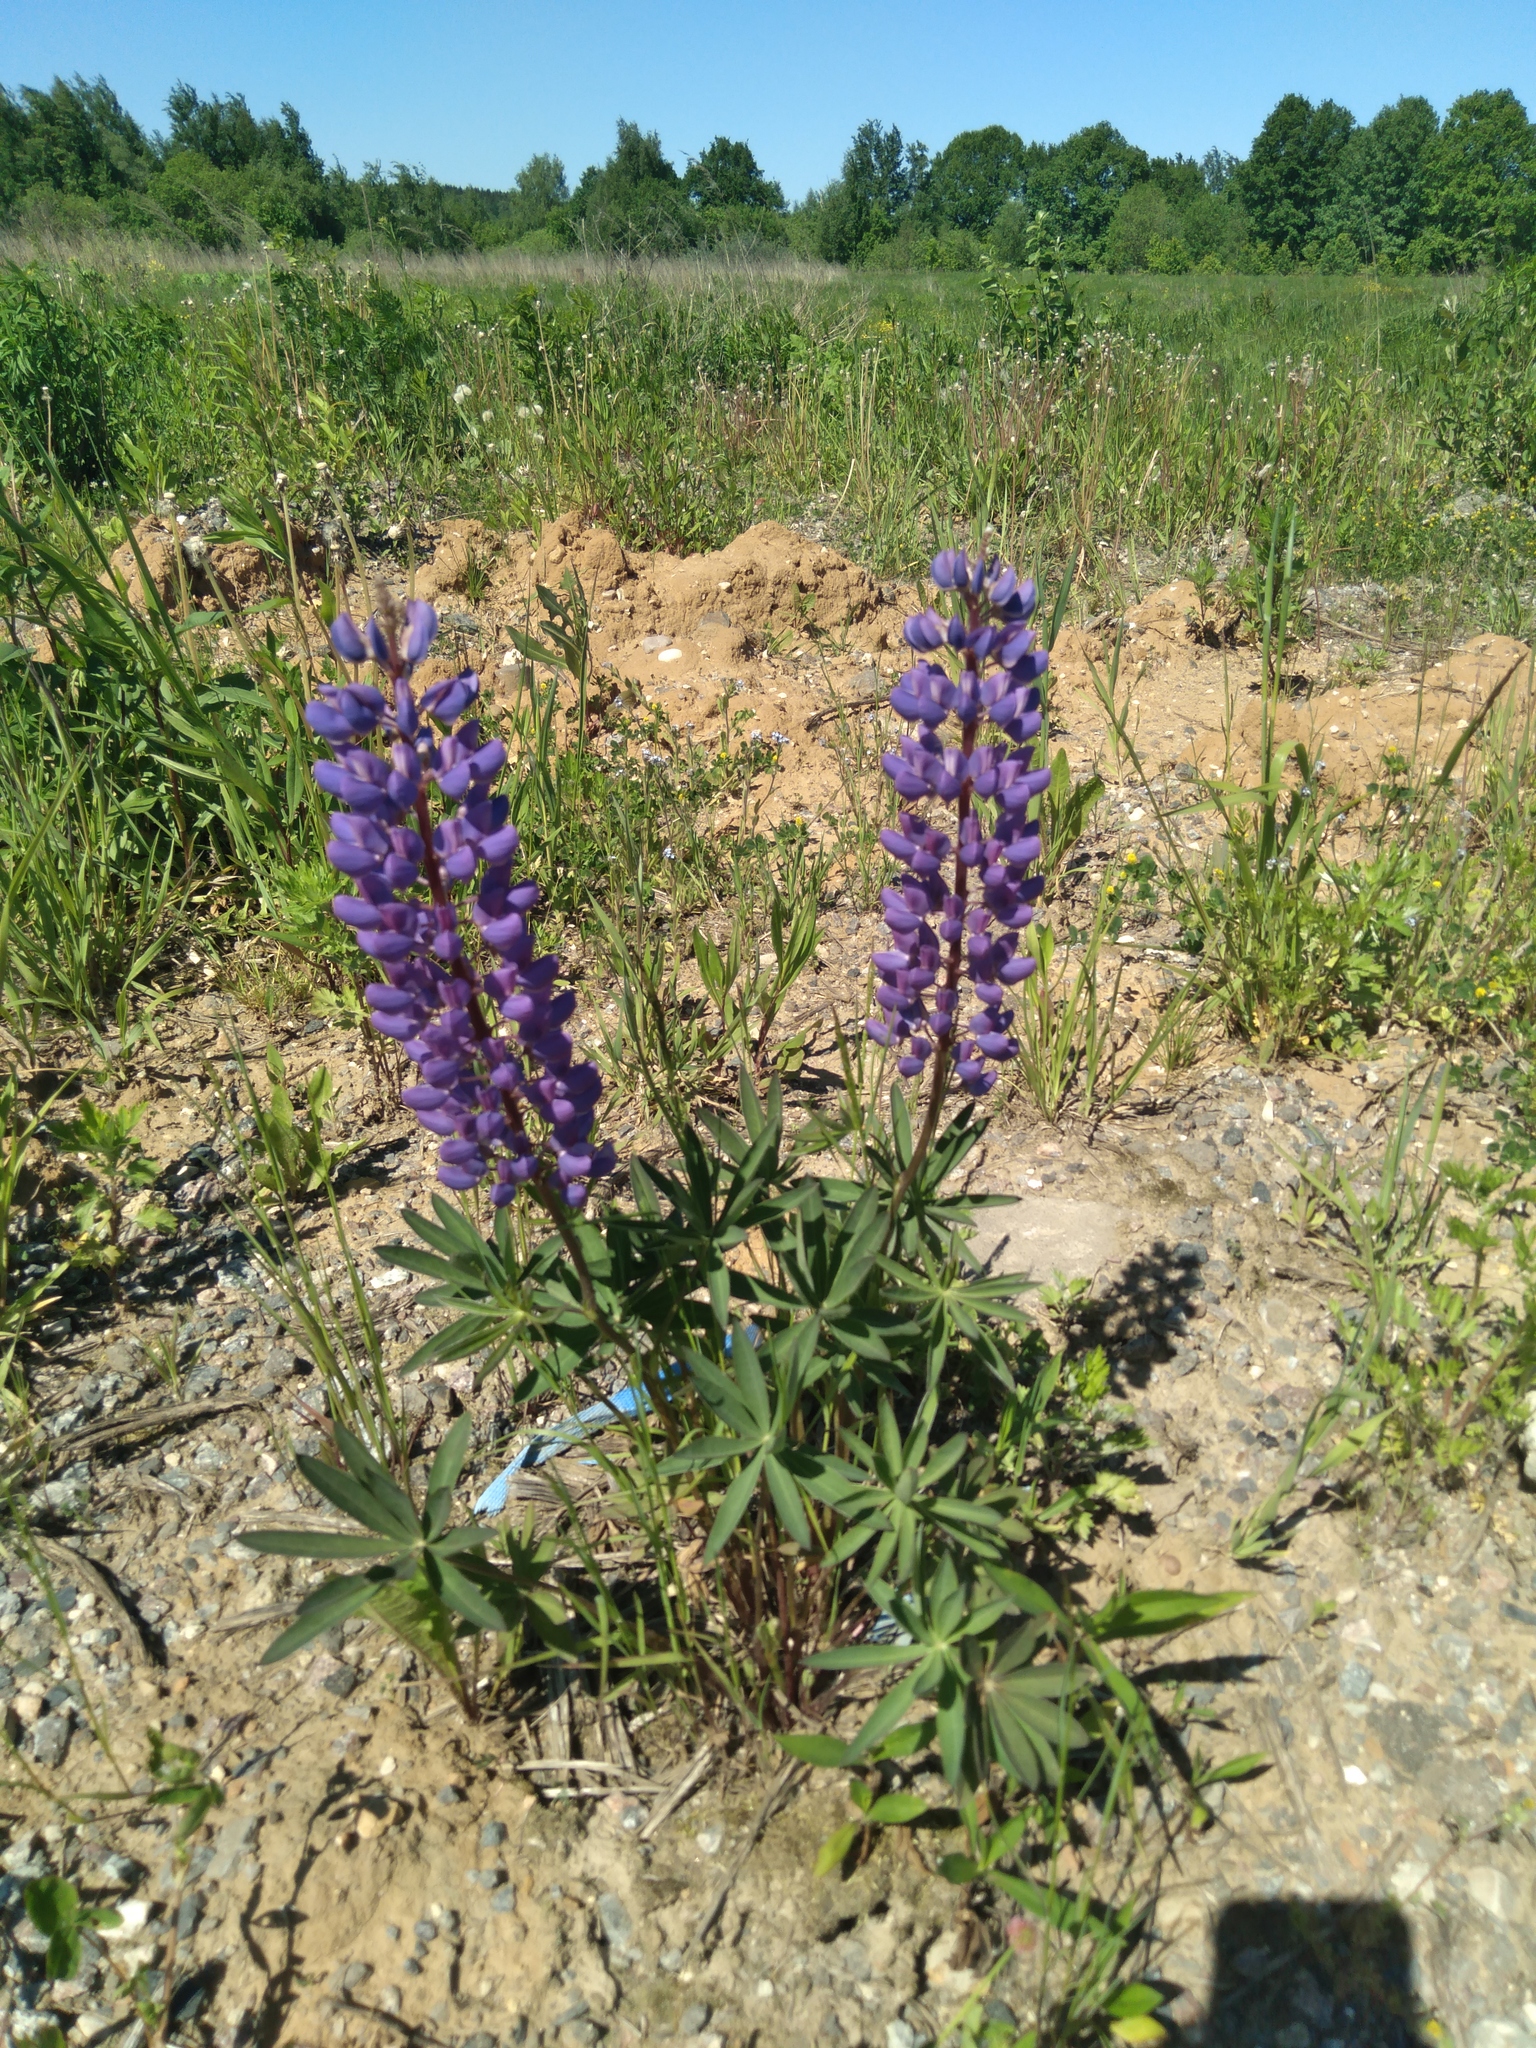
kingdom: Plantae
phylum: Tracheophyta
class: Magnoliopsida
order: Fabales
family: Fabaceae
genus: Lupinus
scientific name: Lupinus polyphyllus
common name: Garden lupin
